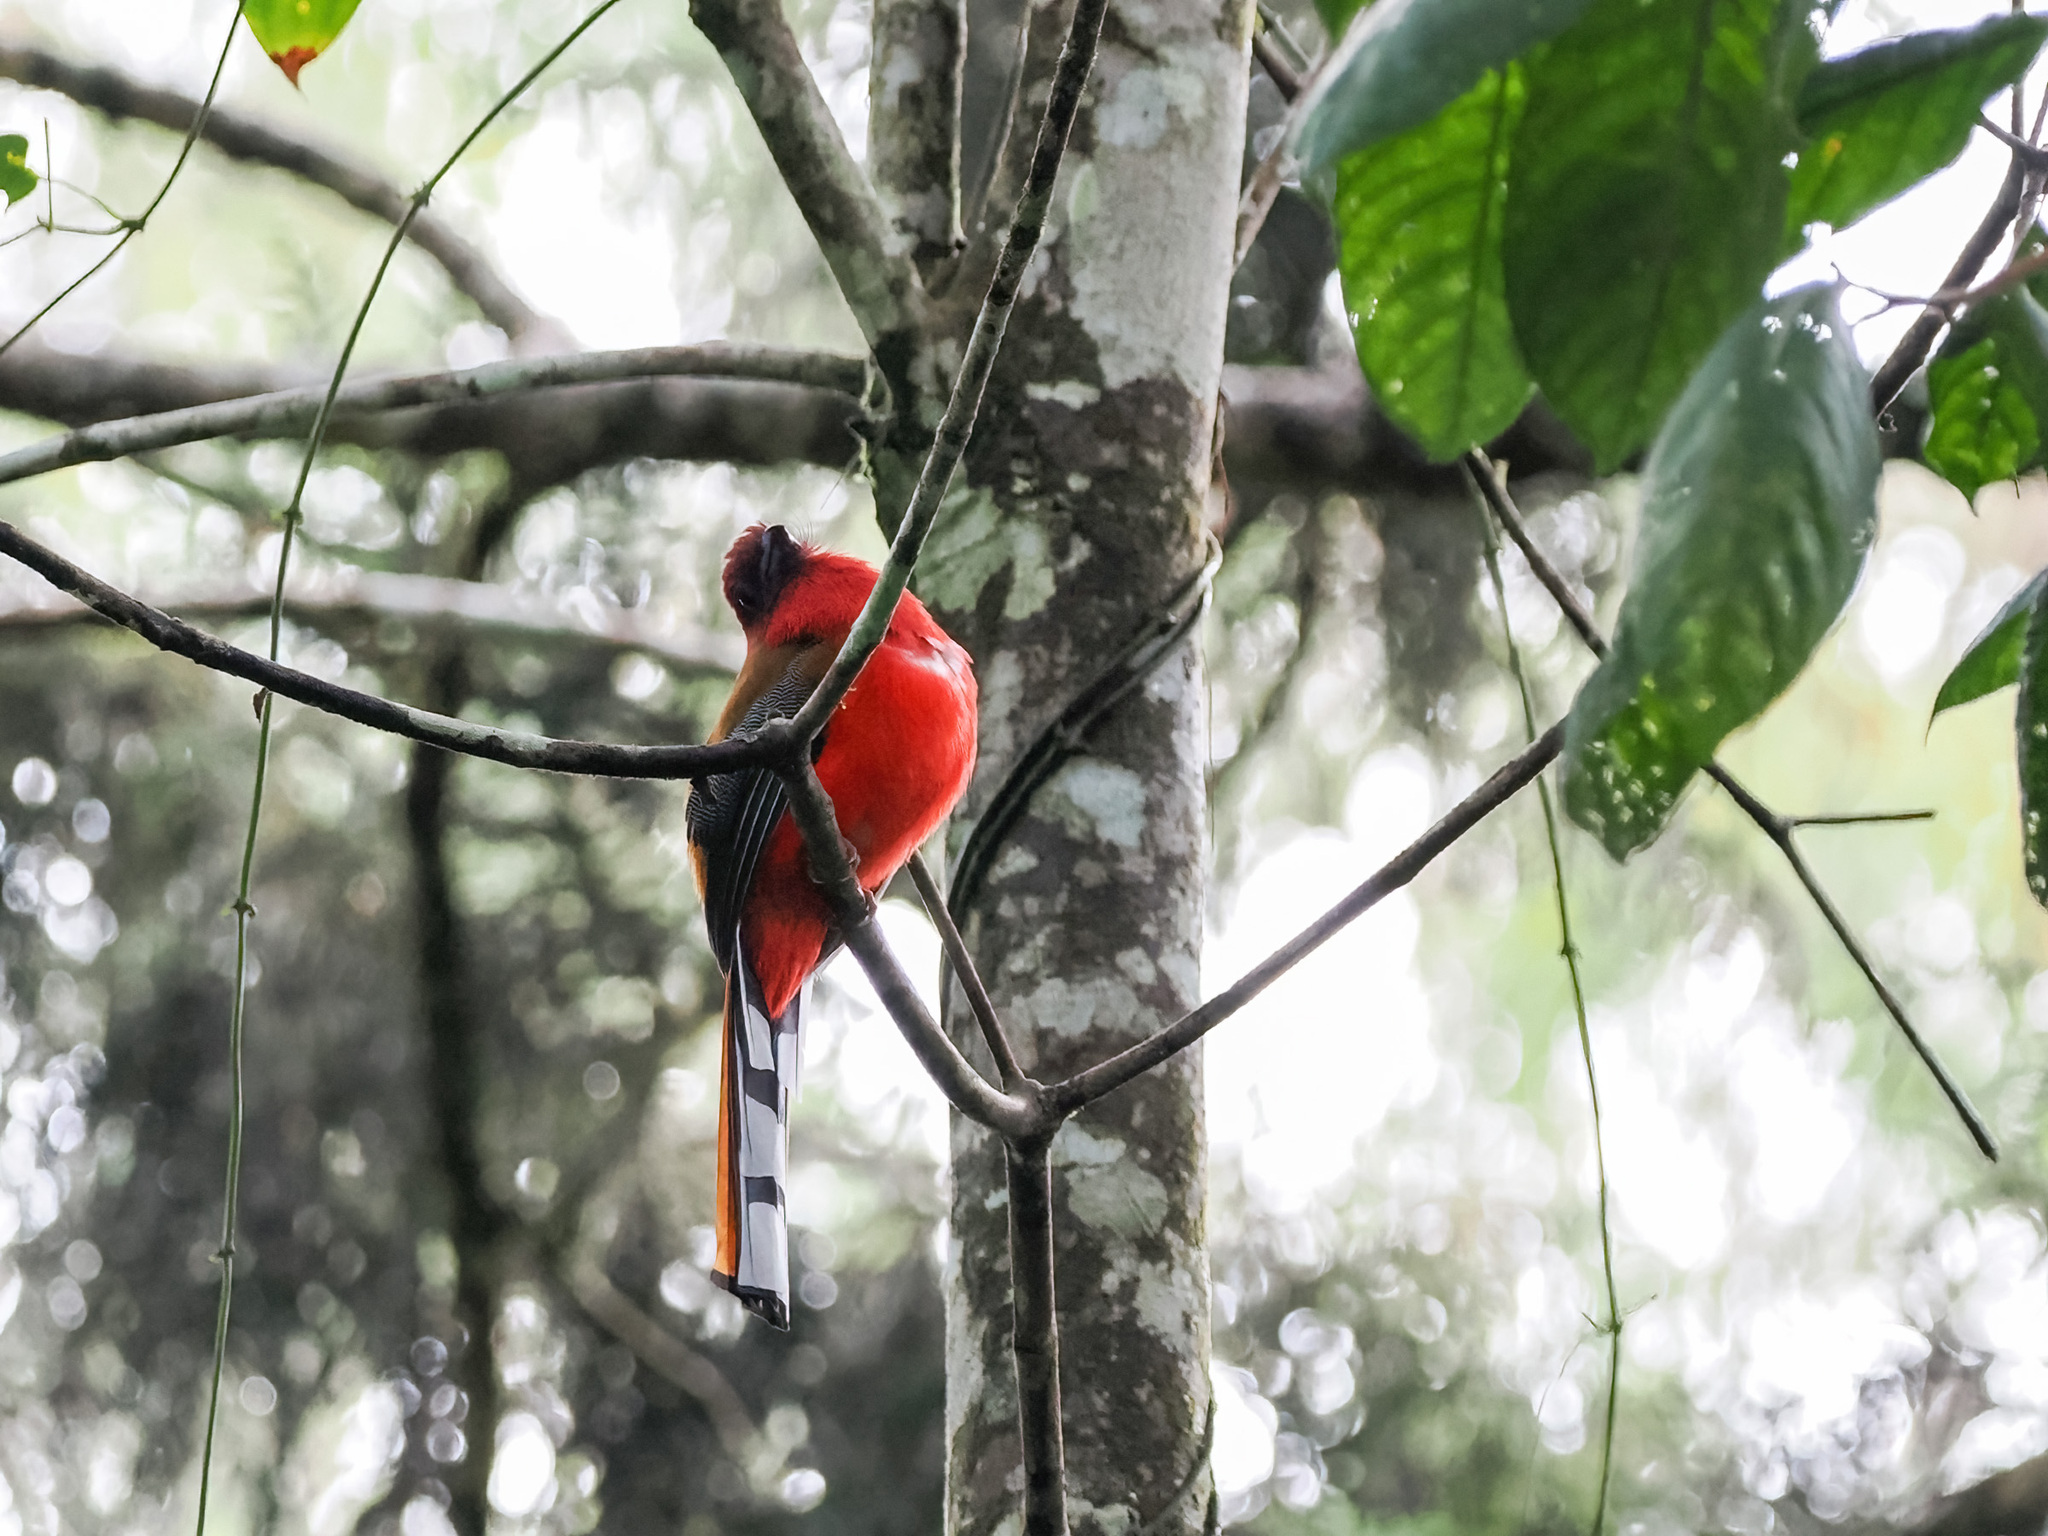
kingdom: Animalia
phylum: Chordata
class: Aves
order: Trogoniformes
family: Trogonidae
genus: Harpactes
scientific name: Harpactes erythrocephalus
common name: Red-headed trogon
